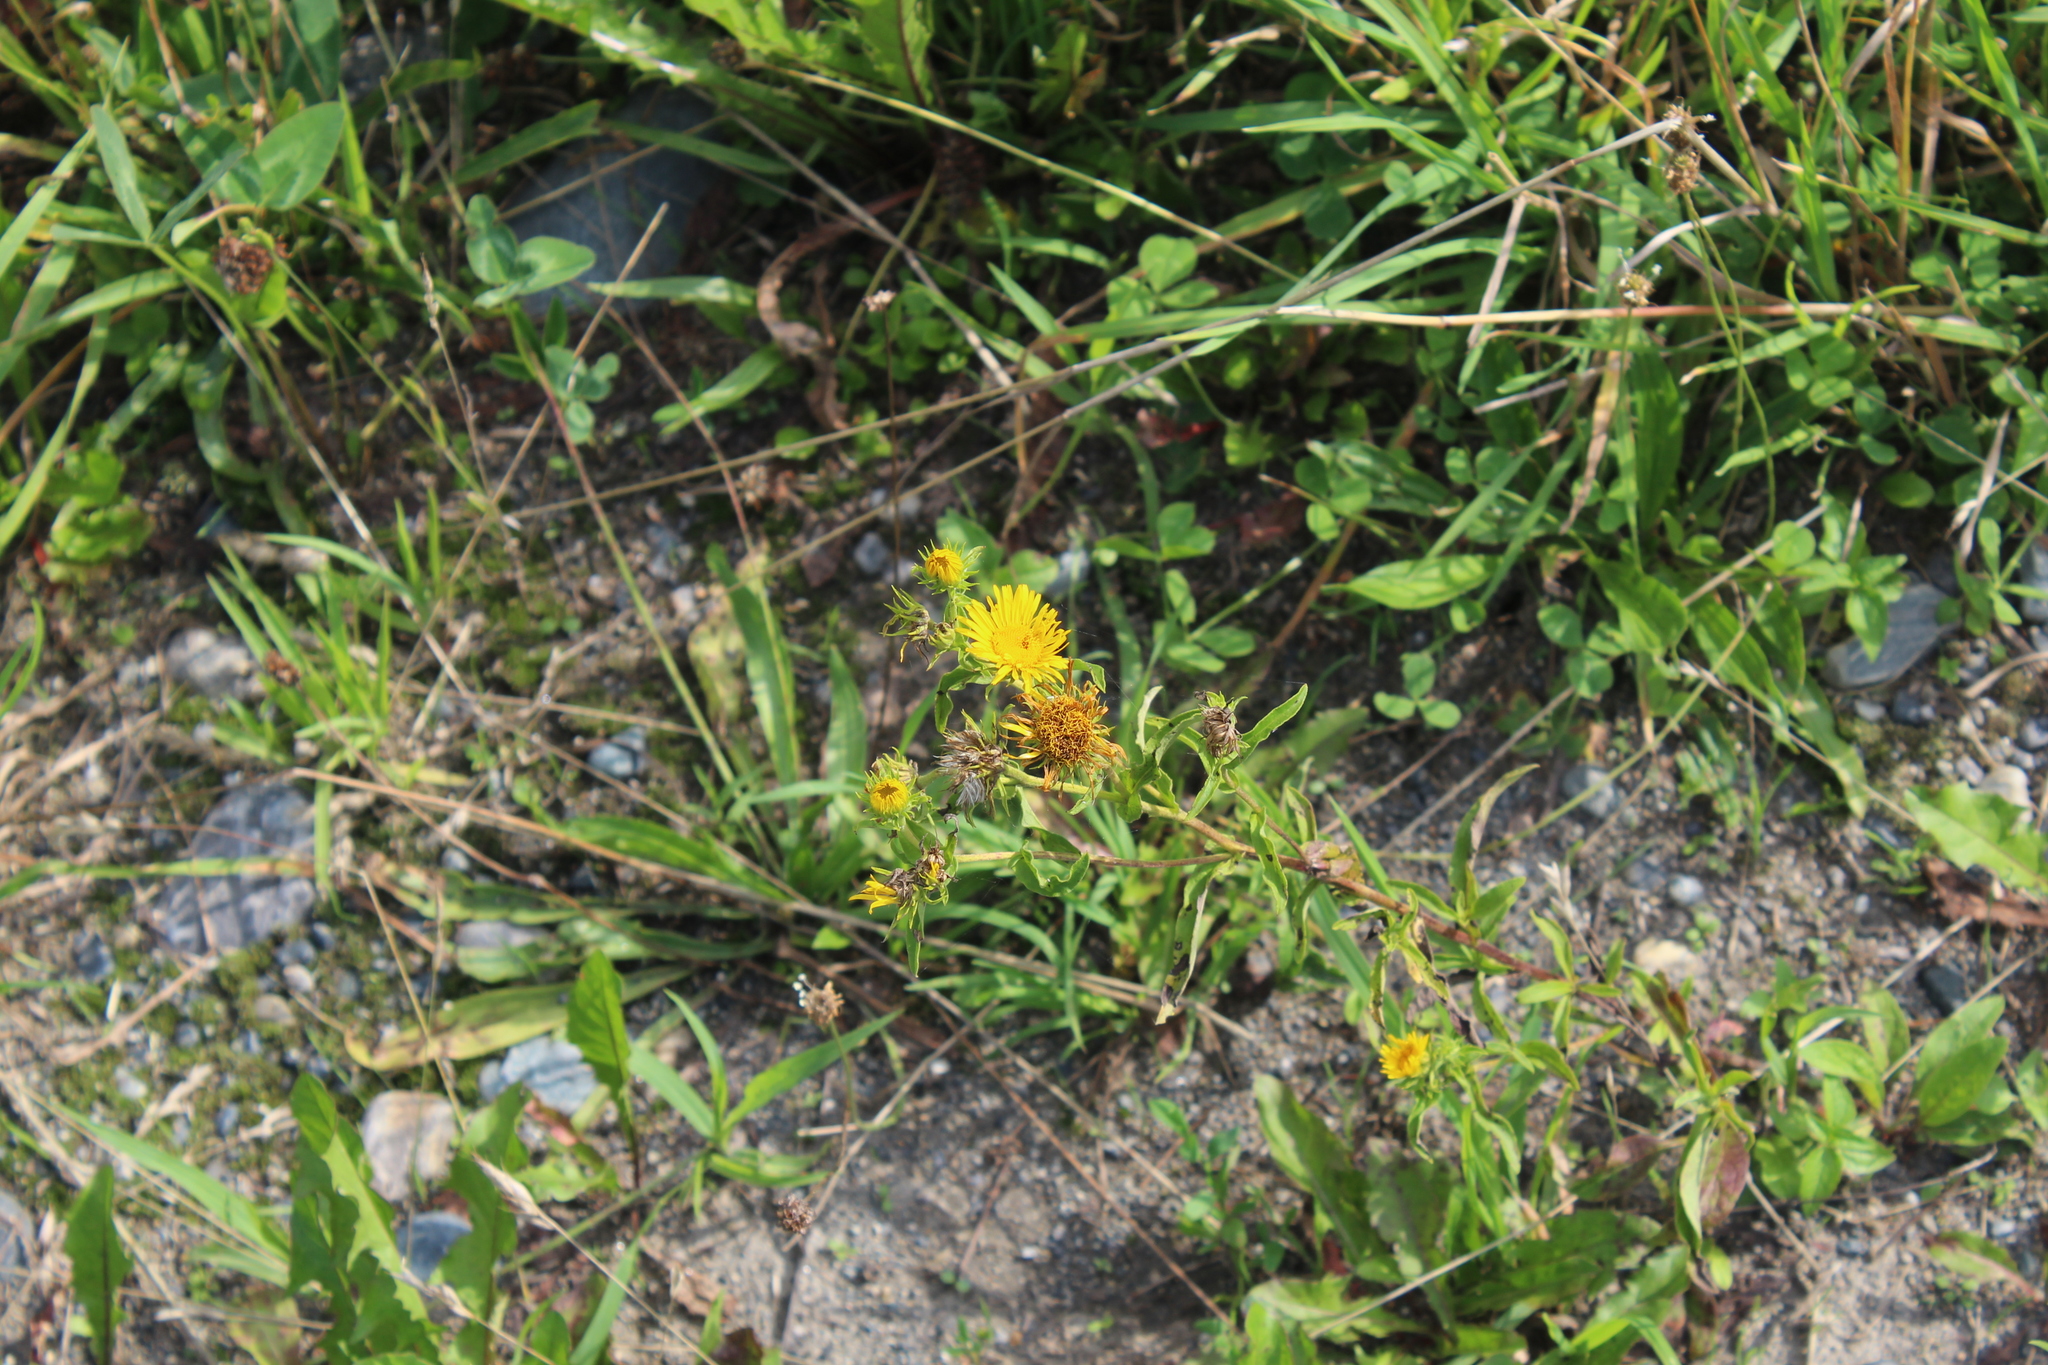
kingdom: Plantae
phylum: Tracheophyta
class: Magnoliopsida
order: Asterales
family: Asteraceae
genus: Pentanema
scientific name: Pentanema britannicum
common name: British elecampane
